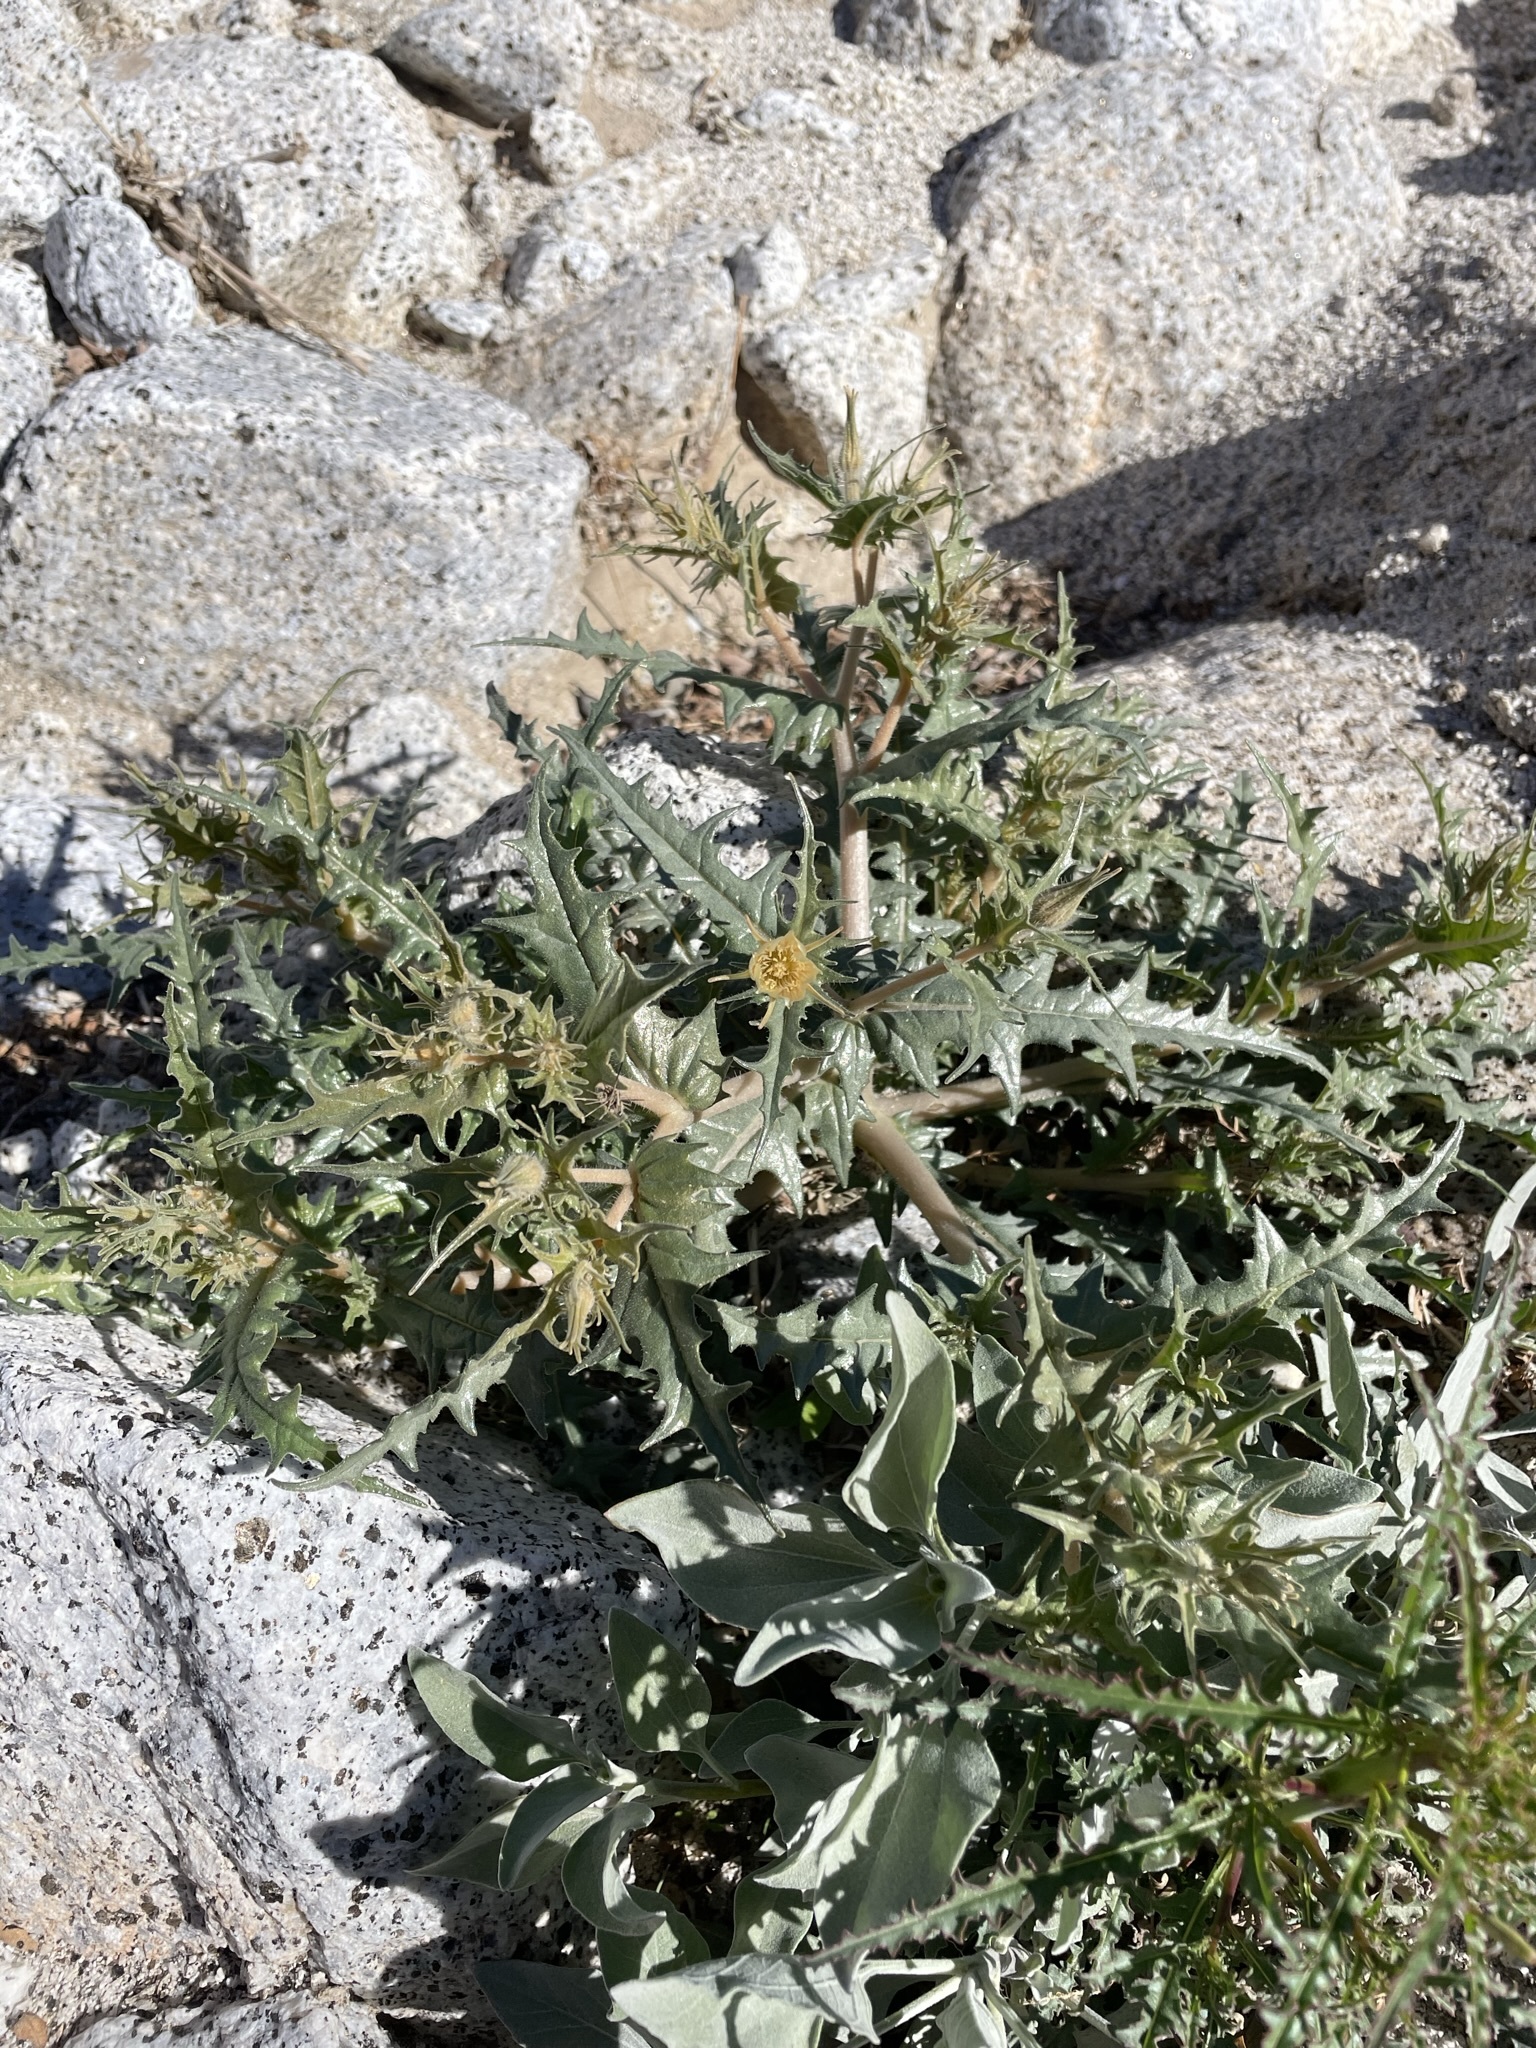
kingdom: Plantae
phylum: Tracheophyta
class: Magnoliopsida
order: Cornales
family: Loasaceae
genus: Mentzelia
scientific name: Mentzelia hirsutissima
